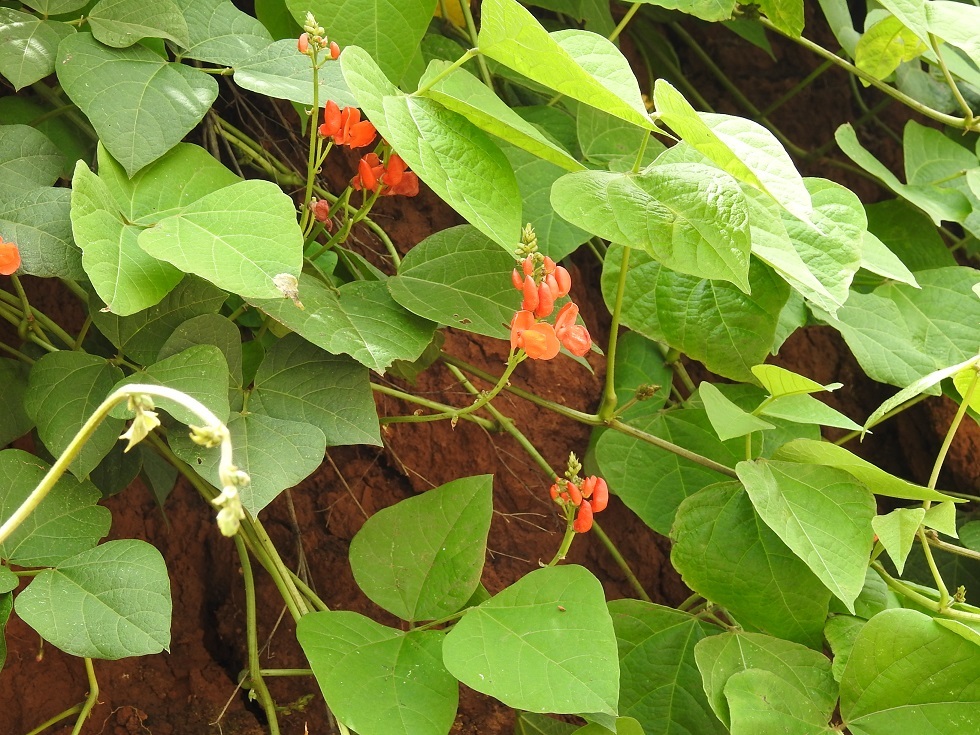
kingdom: Plantae
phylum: Tracheophyta
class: Magnoliopsida
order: Fabales
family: Fabaceae
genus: Phaseolus
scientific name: Phaseolus coccineus
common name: Runner bean
